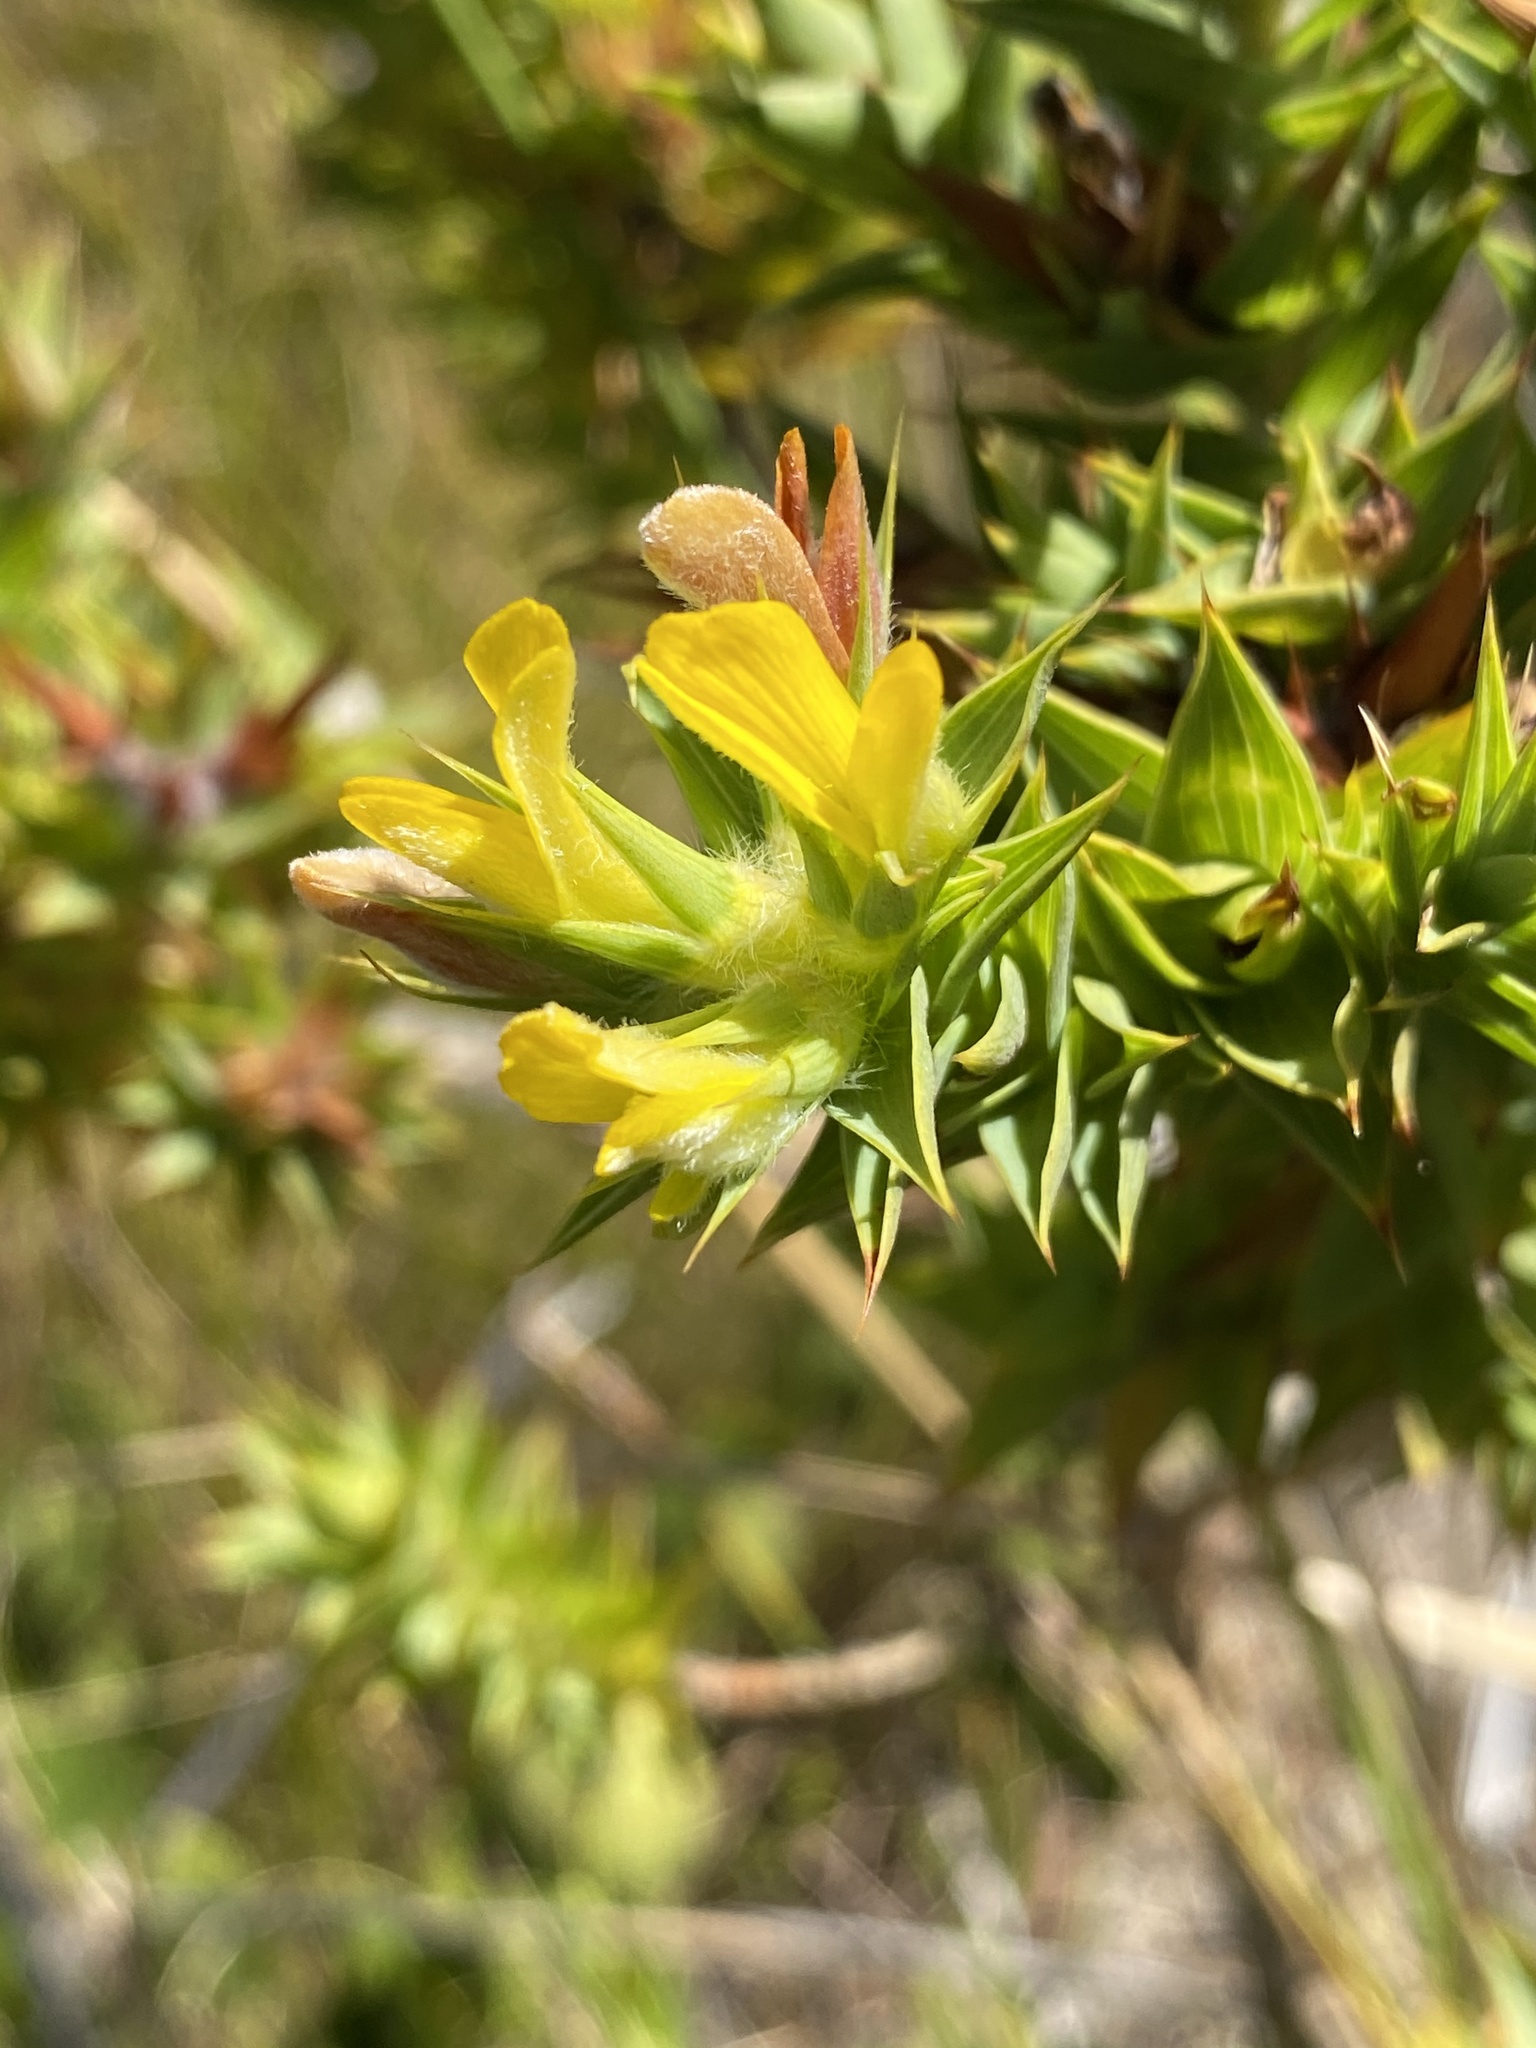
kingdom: Plantae
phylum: Tracheophyta
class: Magnoliopsida
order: Fabales
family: Fabaceae
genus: Aspalathus
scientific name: Aspalathus cordata
